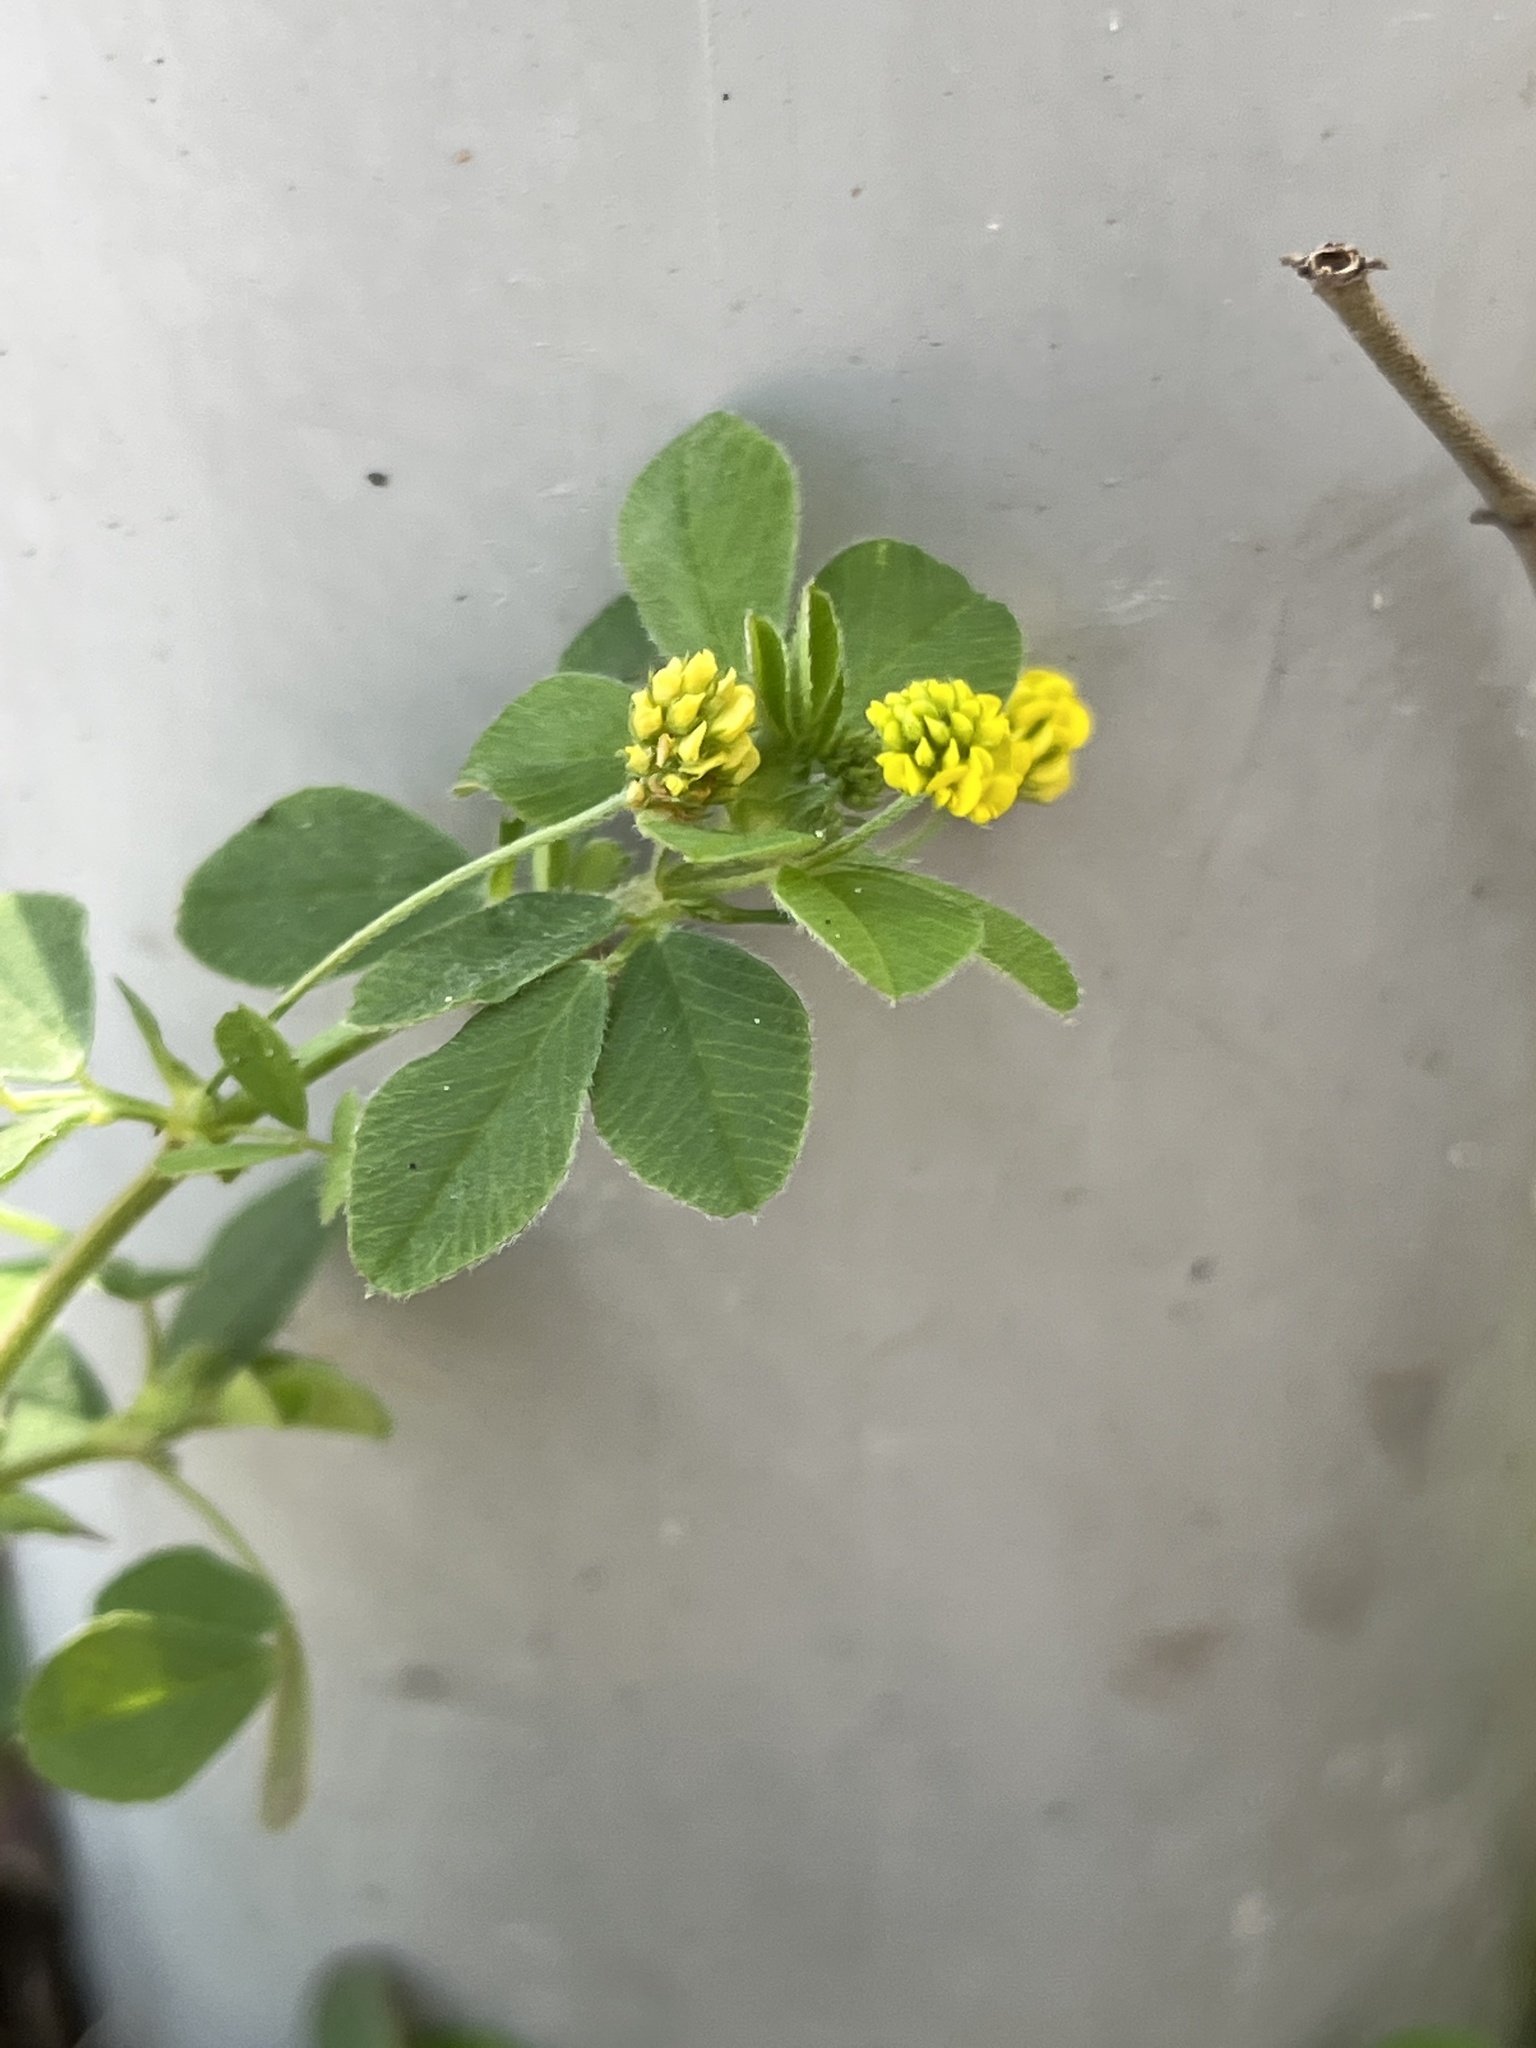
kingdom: Plantae
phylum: Tracheophyta
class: Magnoliopsida
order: Fabales
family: Fabaceae
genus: Medicago
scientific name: Medicago lupulina
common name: Black medick
